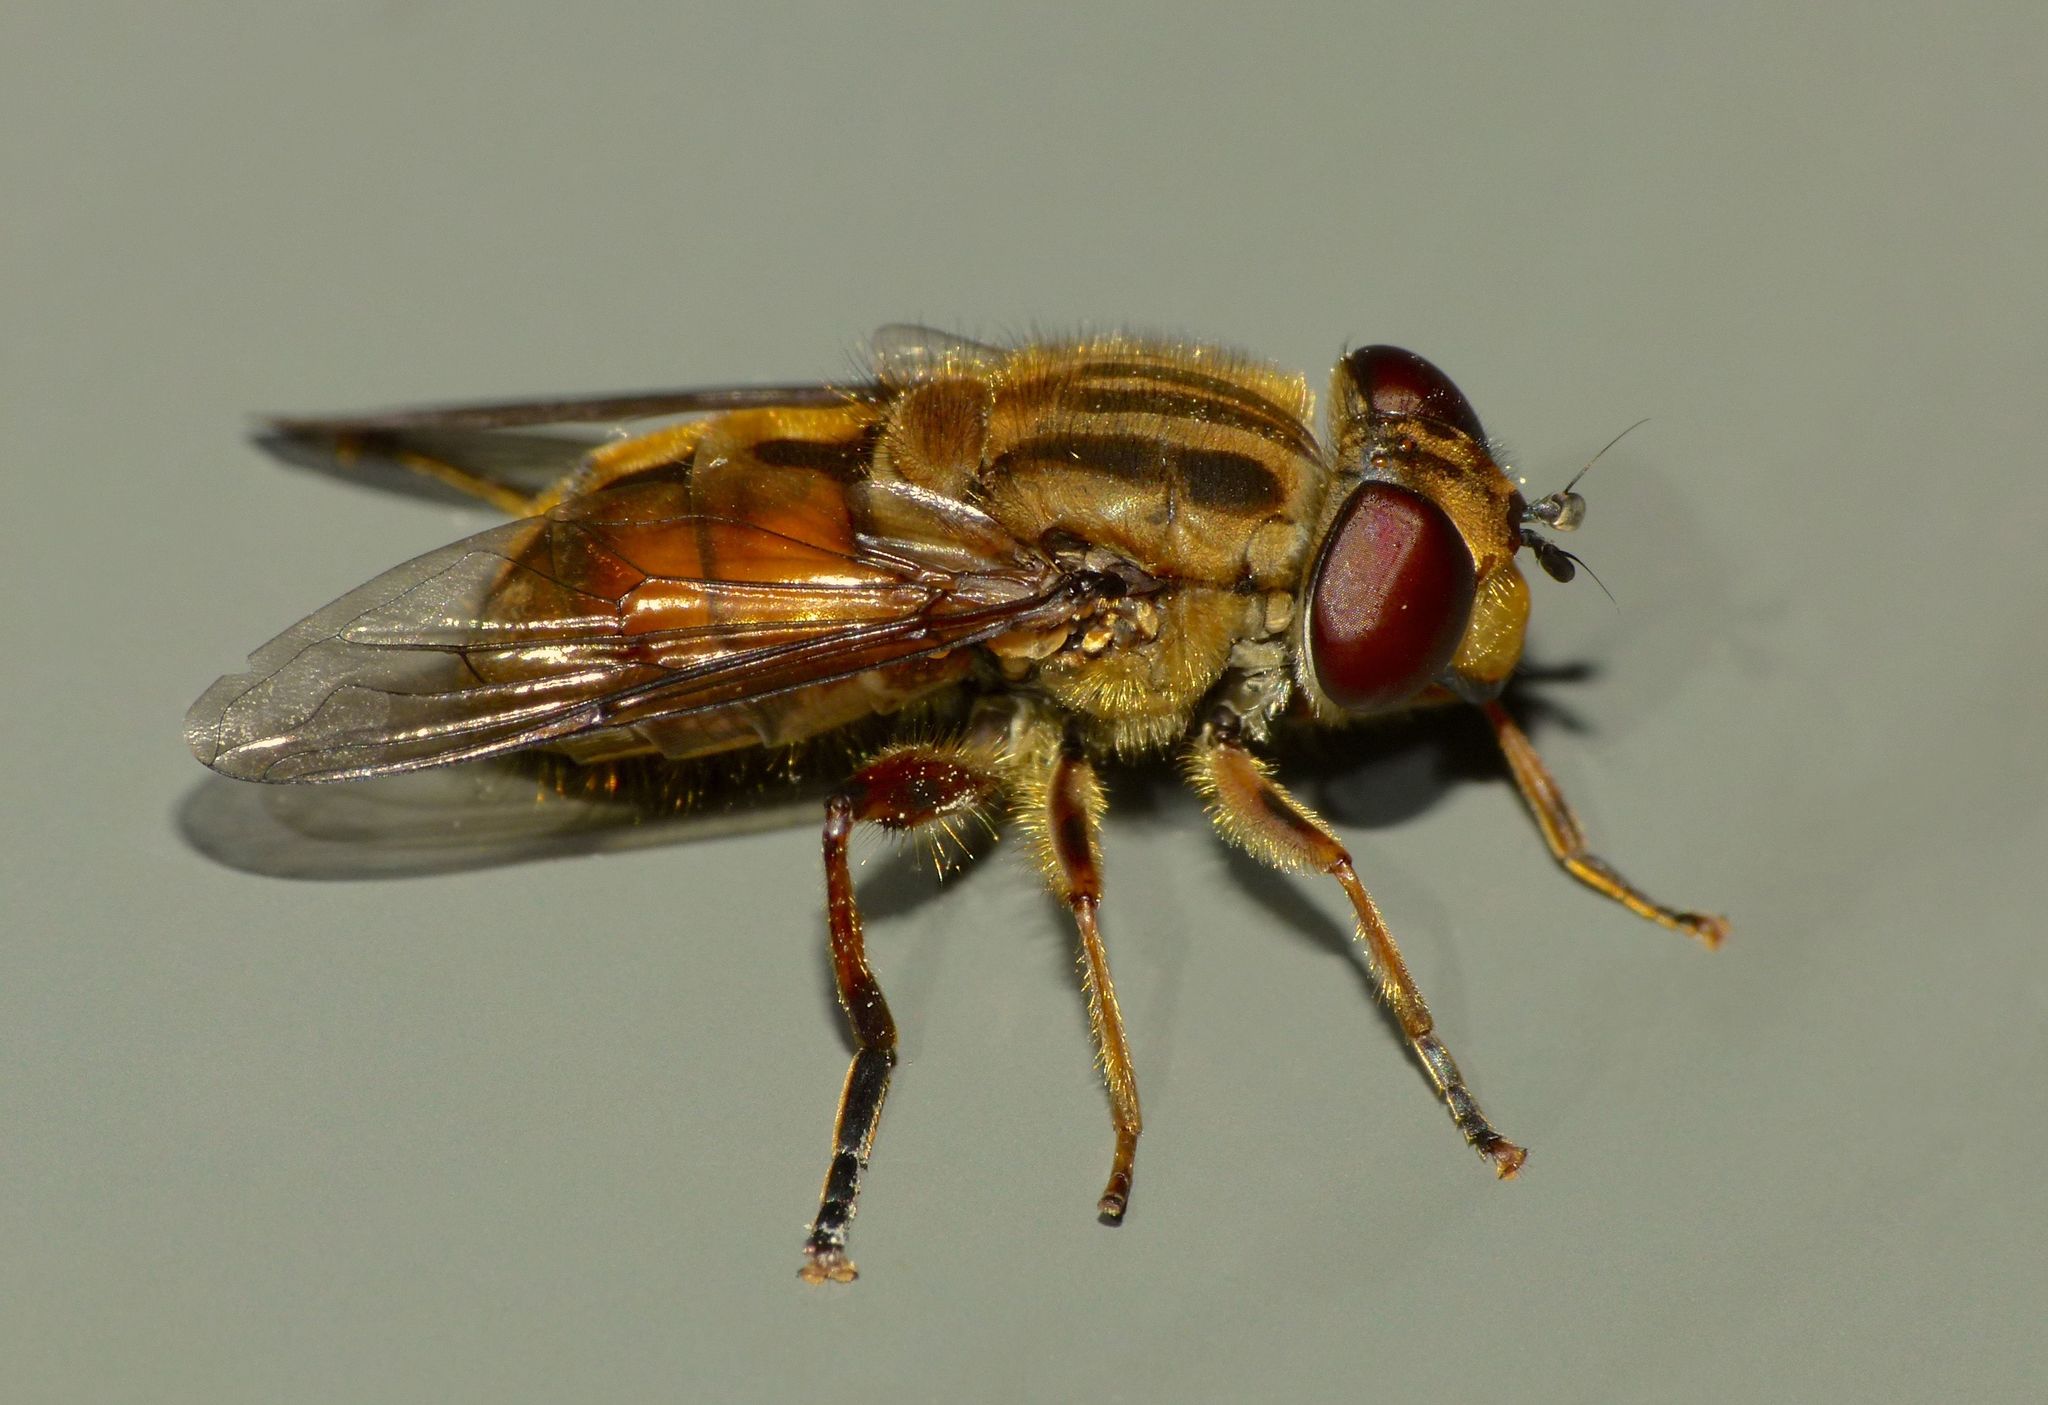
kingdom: Animalia
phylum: Arthropoda
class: Insecta
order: Diptera
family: Syrphidae
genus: Helophilus
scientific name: Helophilus cargilli
